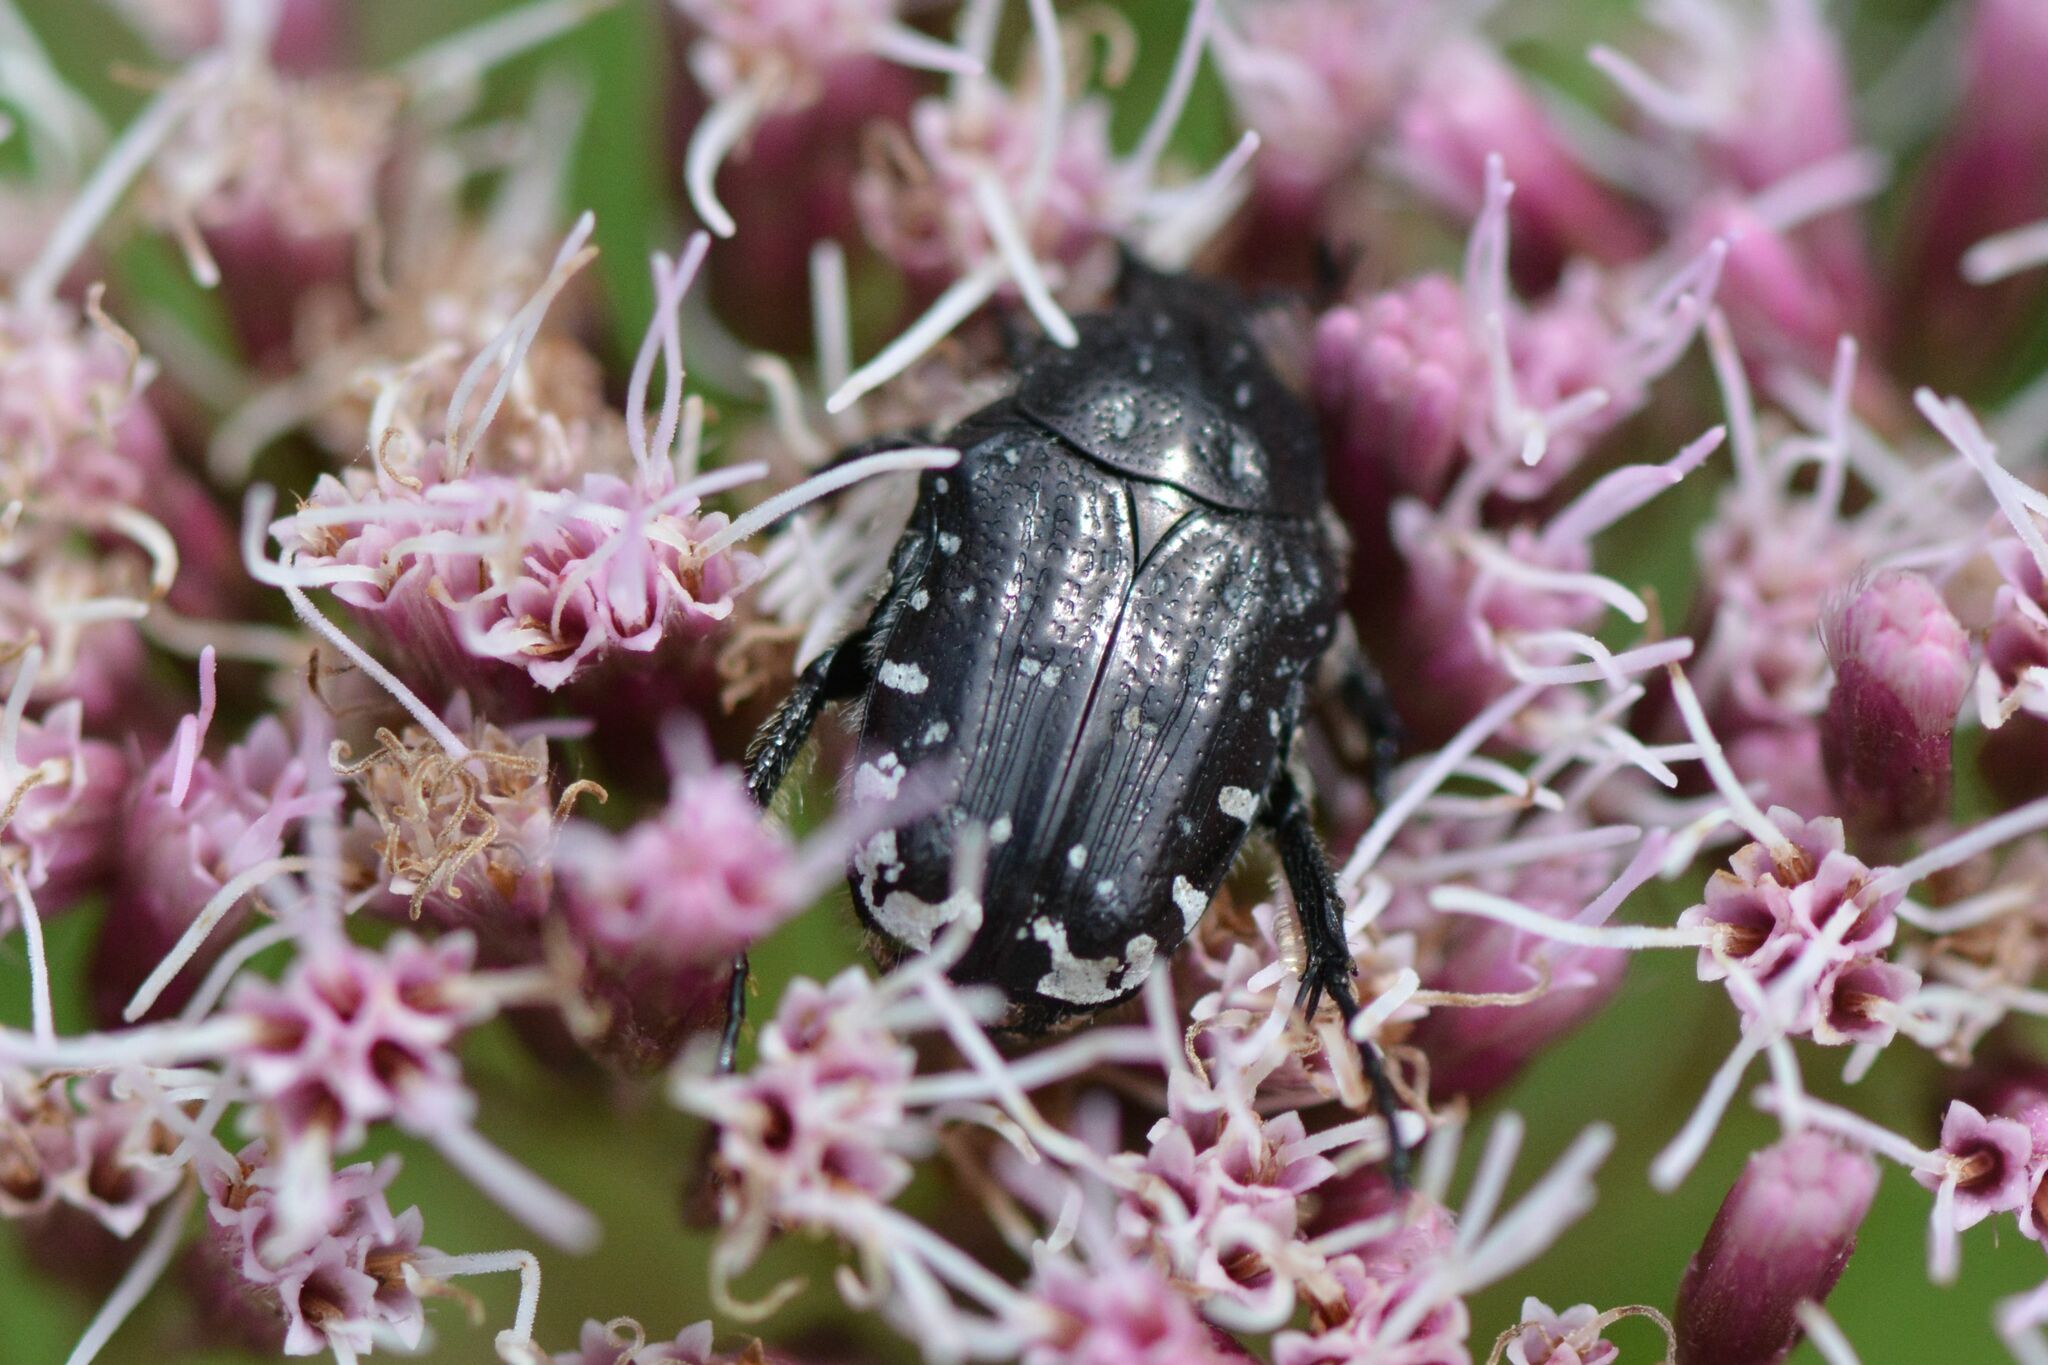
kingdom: Animalia
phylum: Arthropoda
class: Insecta
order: Coleoptera
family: Scarabaeidae
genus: Oxythyrea
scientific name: Oxythyrea funesta
